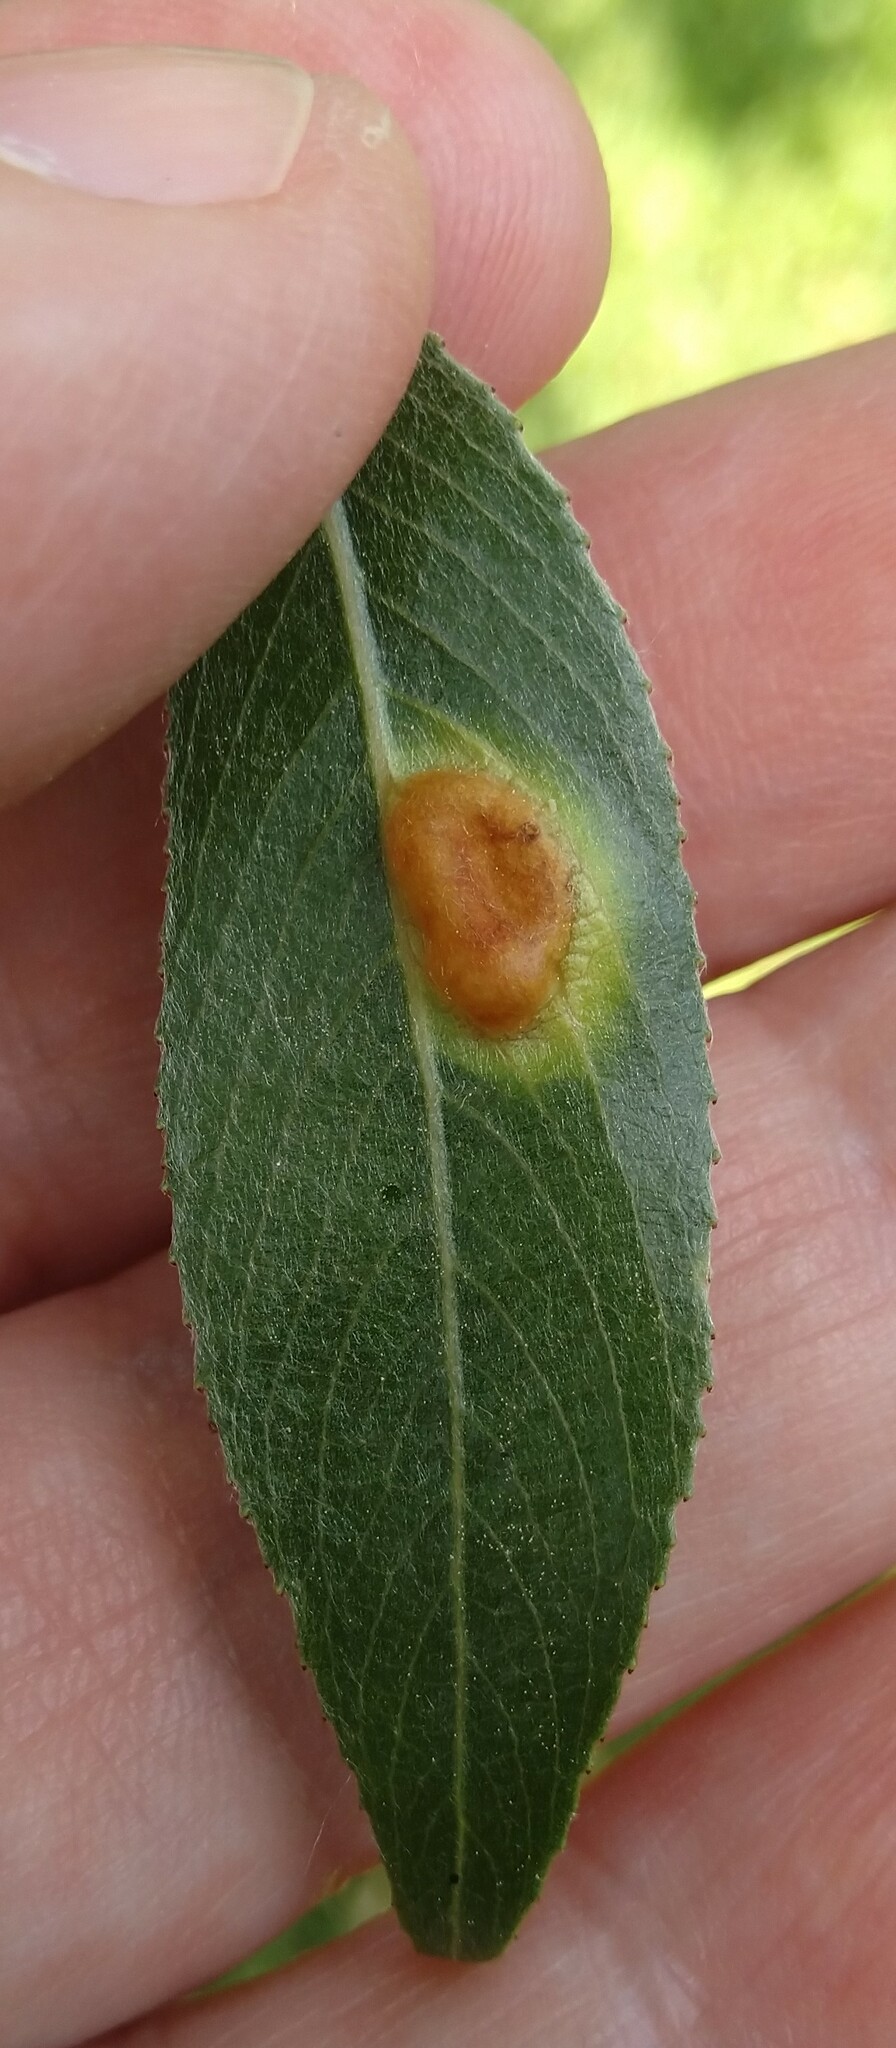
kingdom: Animalia
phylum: Arthropoda
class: Insecta
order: Hymenoptera
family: Tenthredinidae
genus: Pontania
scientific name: Pontania proxima
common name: Common sawfly
